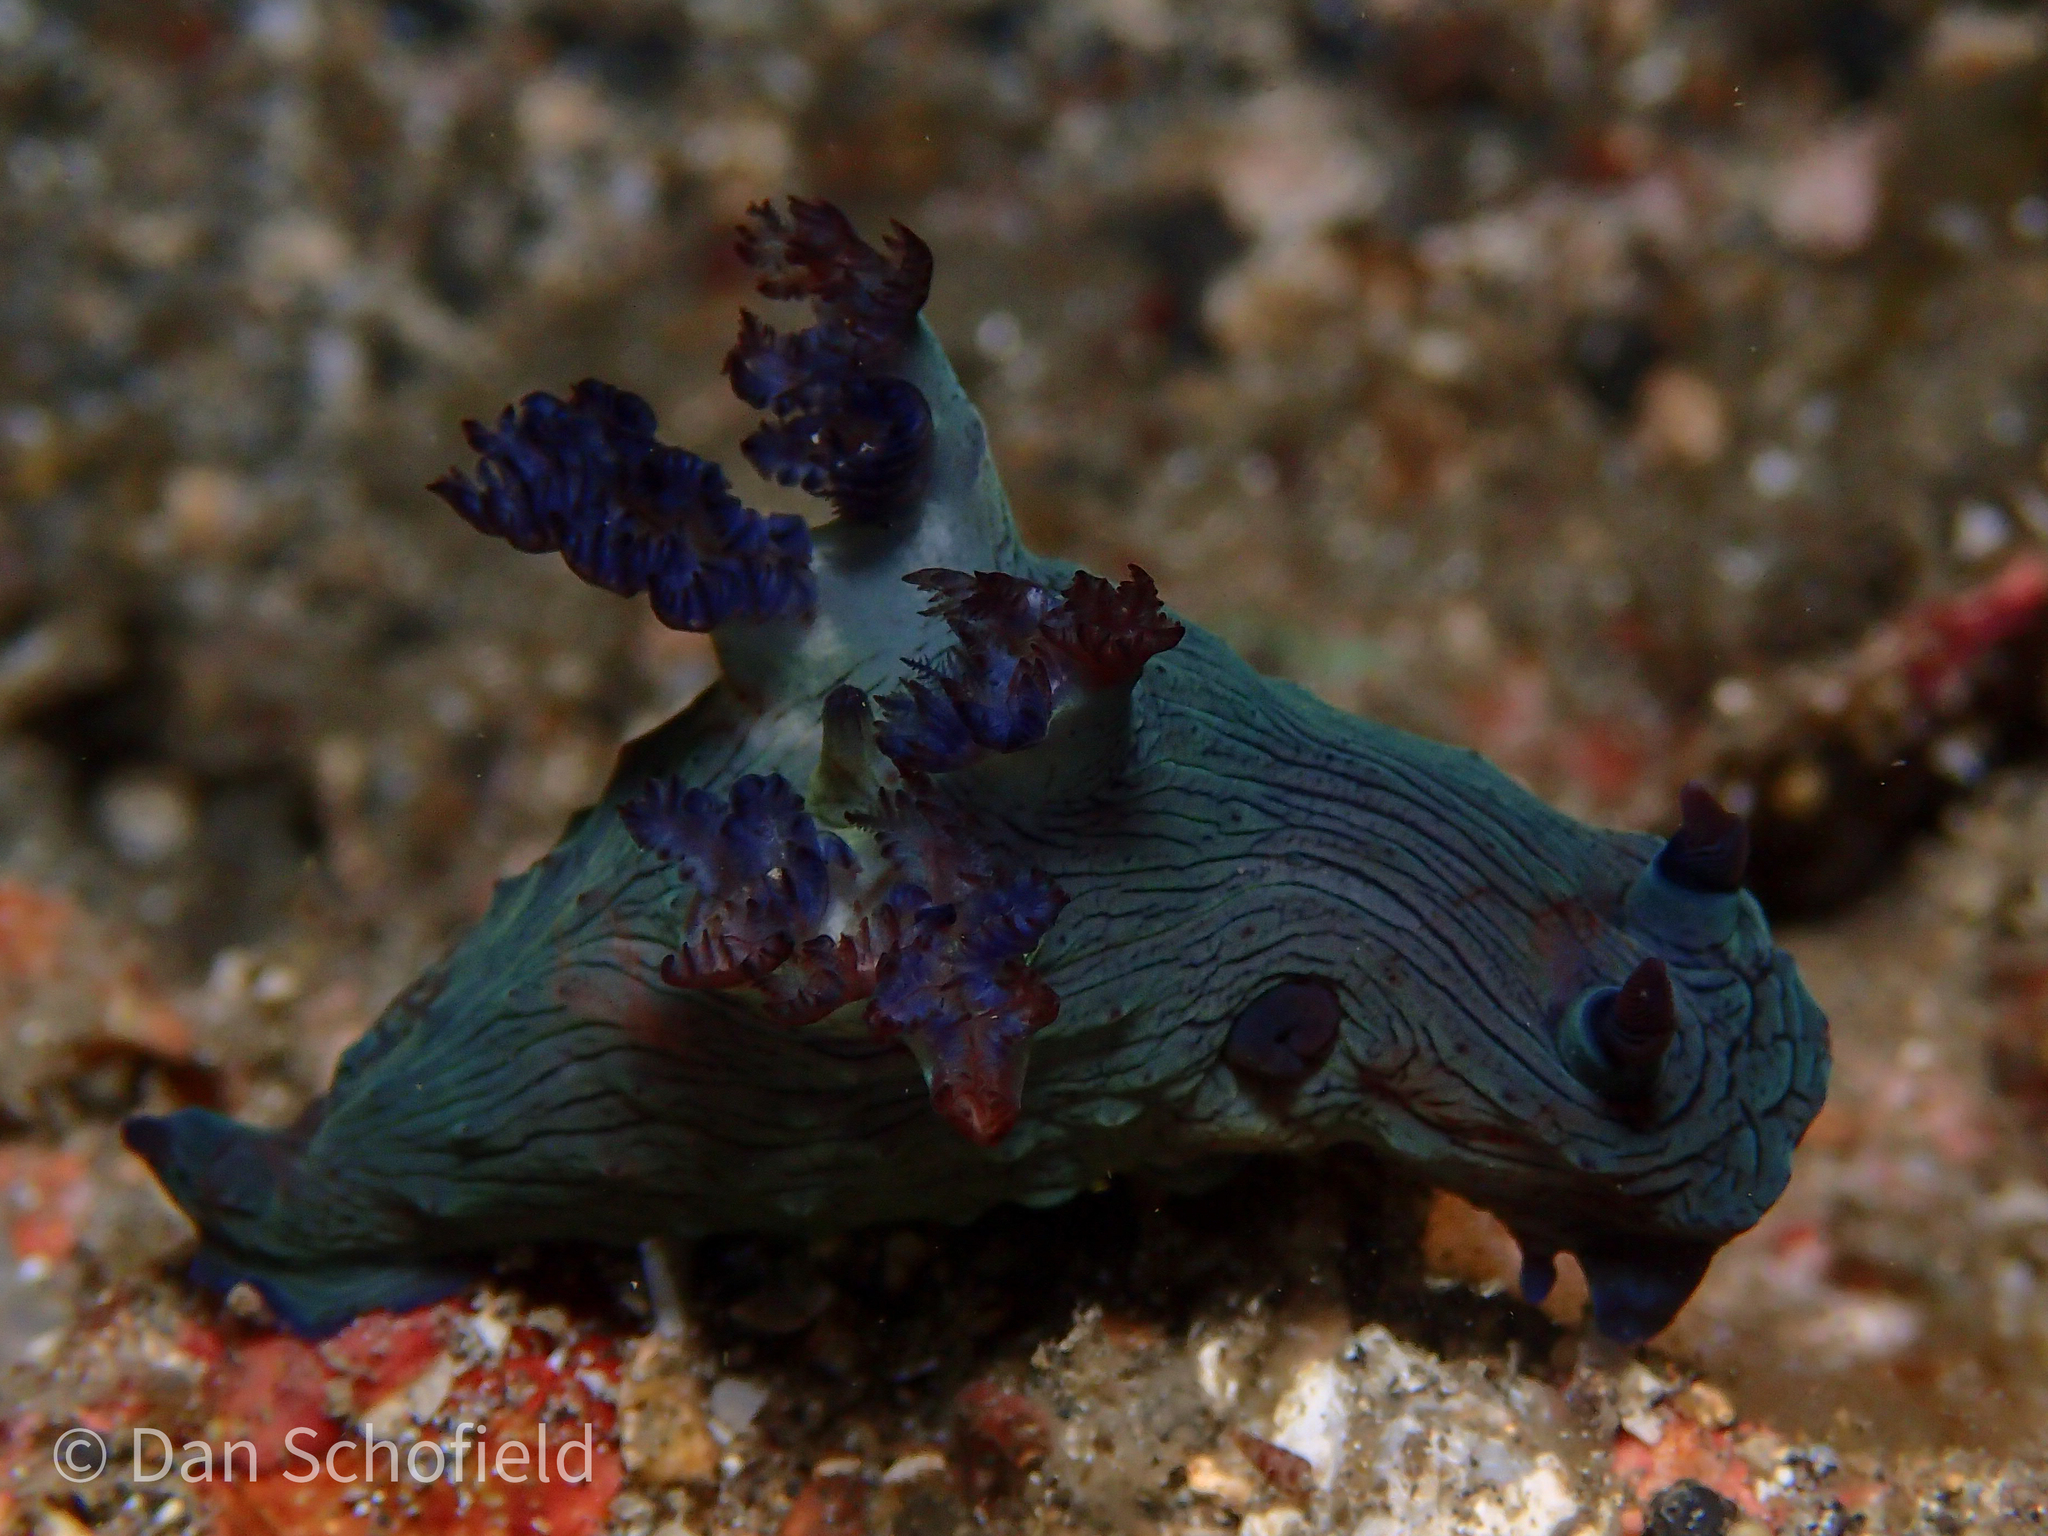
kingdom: Animalia
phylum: Mollusca
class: Gastropoda
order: Nudibranchia
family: Polyceridae
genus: Nembrotha
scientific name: Nembrotha milleri
